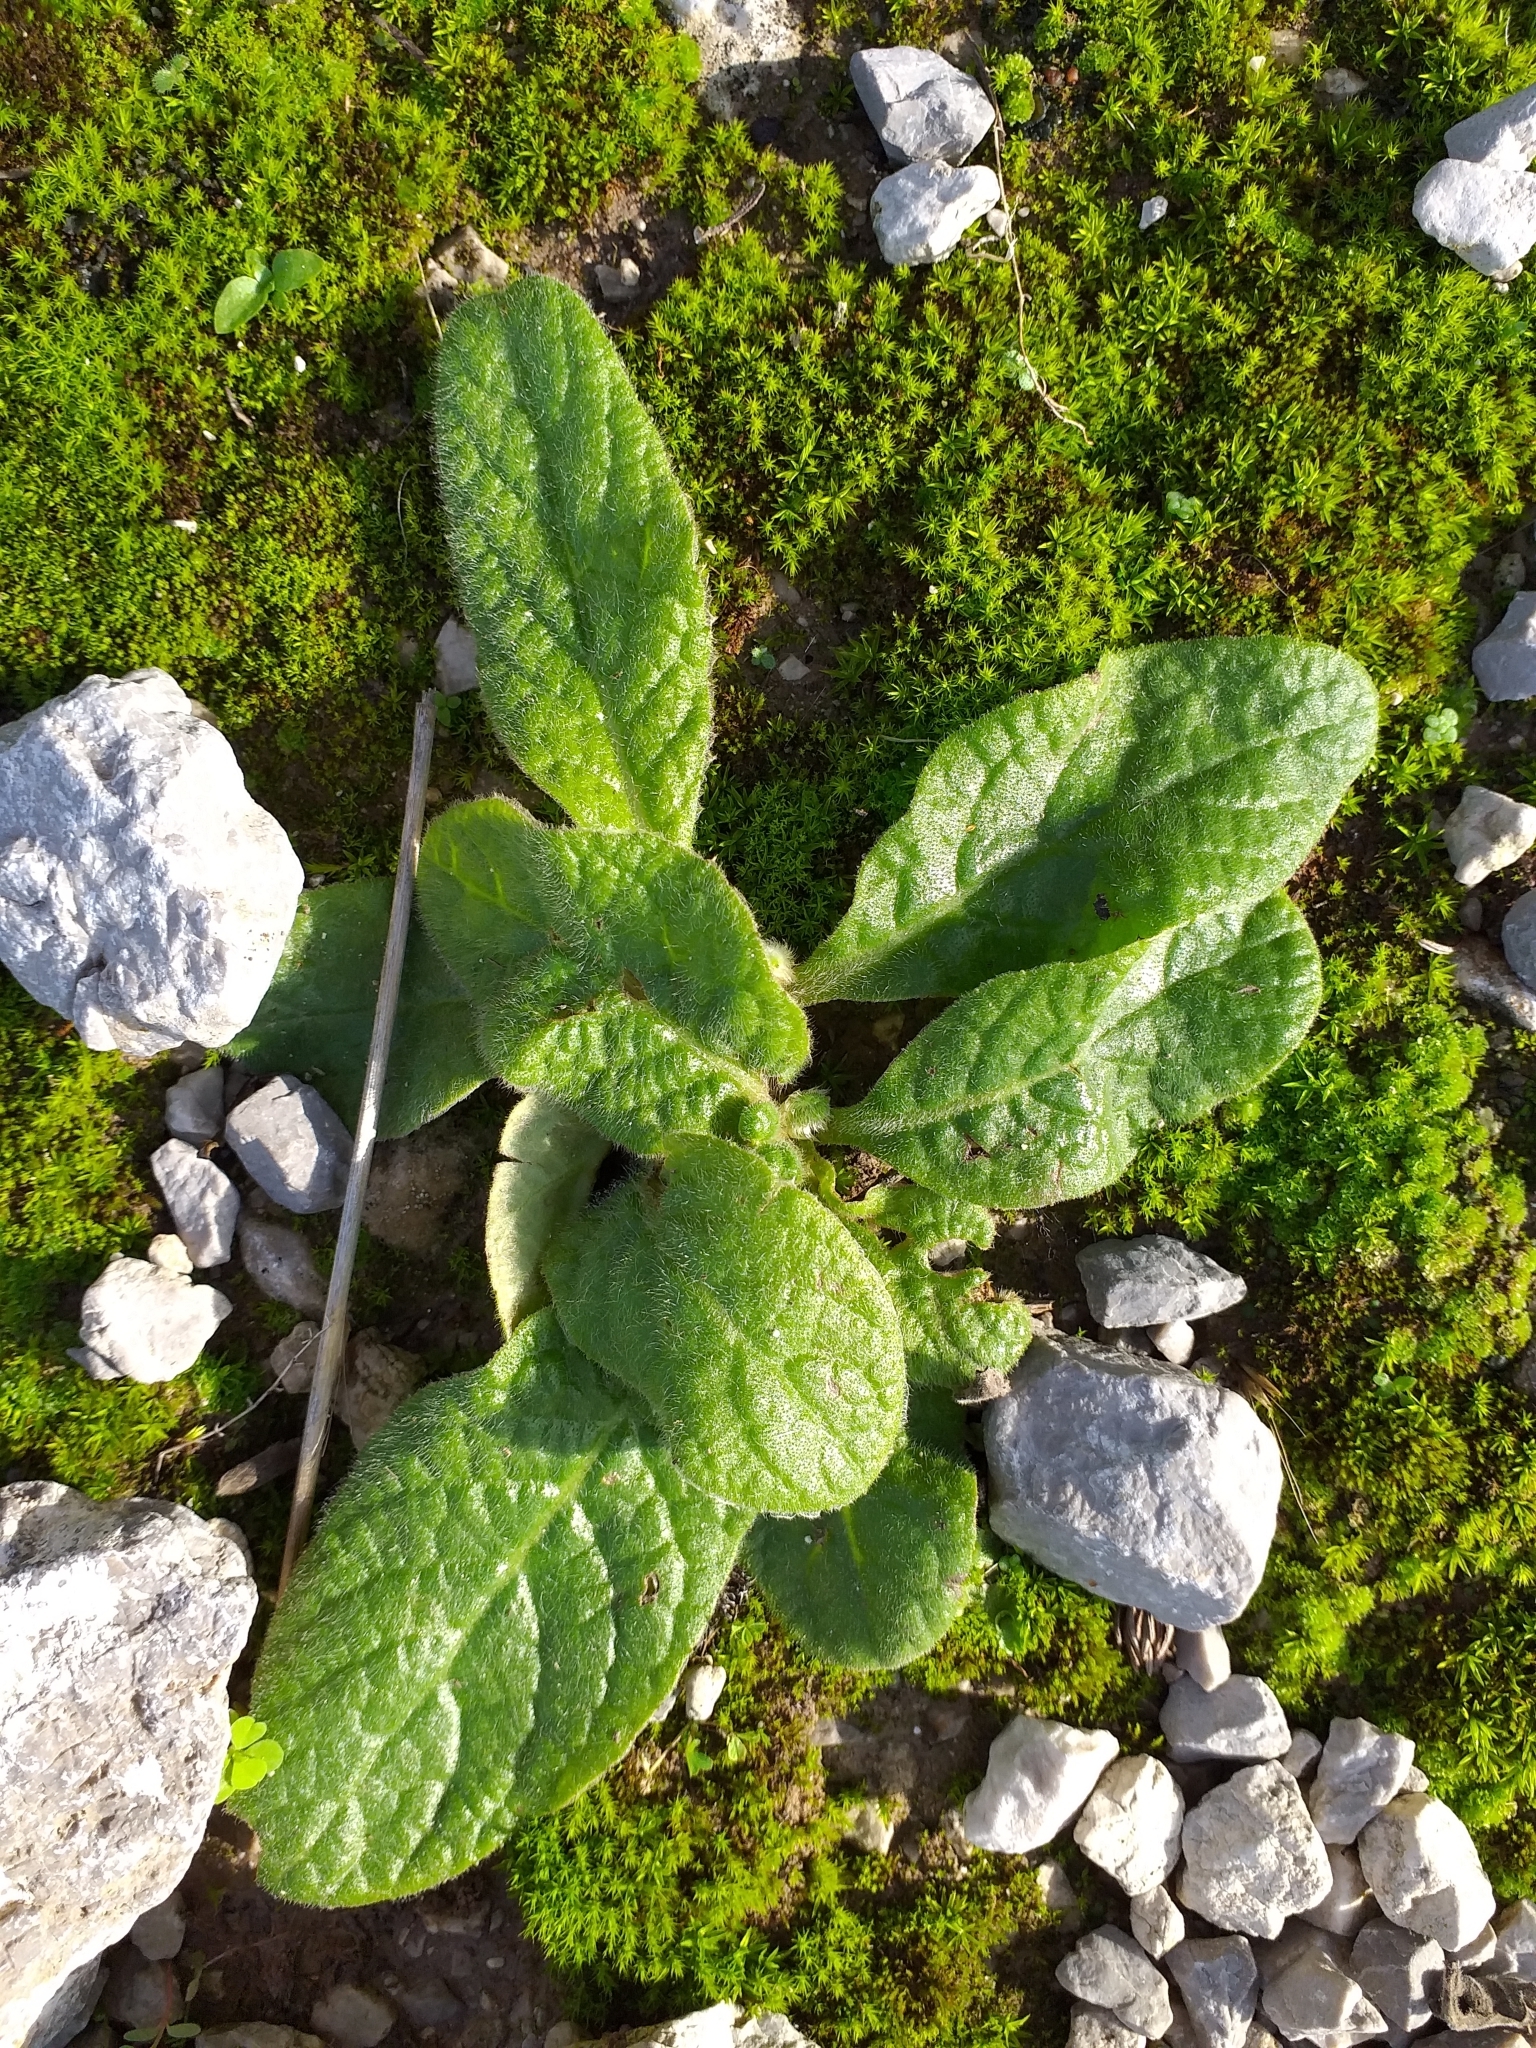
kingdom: Plantae
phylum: Tracheophyta
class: Magnoliopsida
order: Asterales
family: Asteraceae
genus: Pulicaria
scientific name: Pulicaria odora
